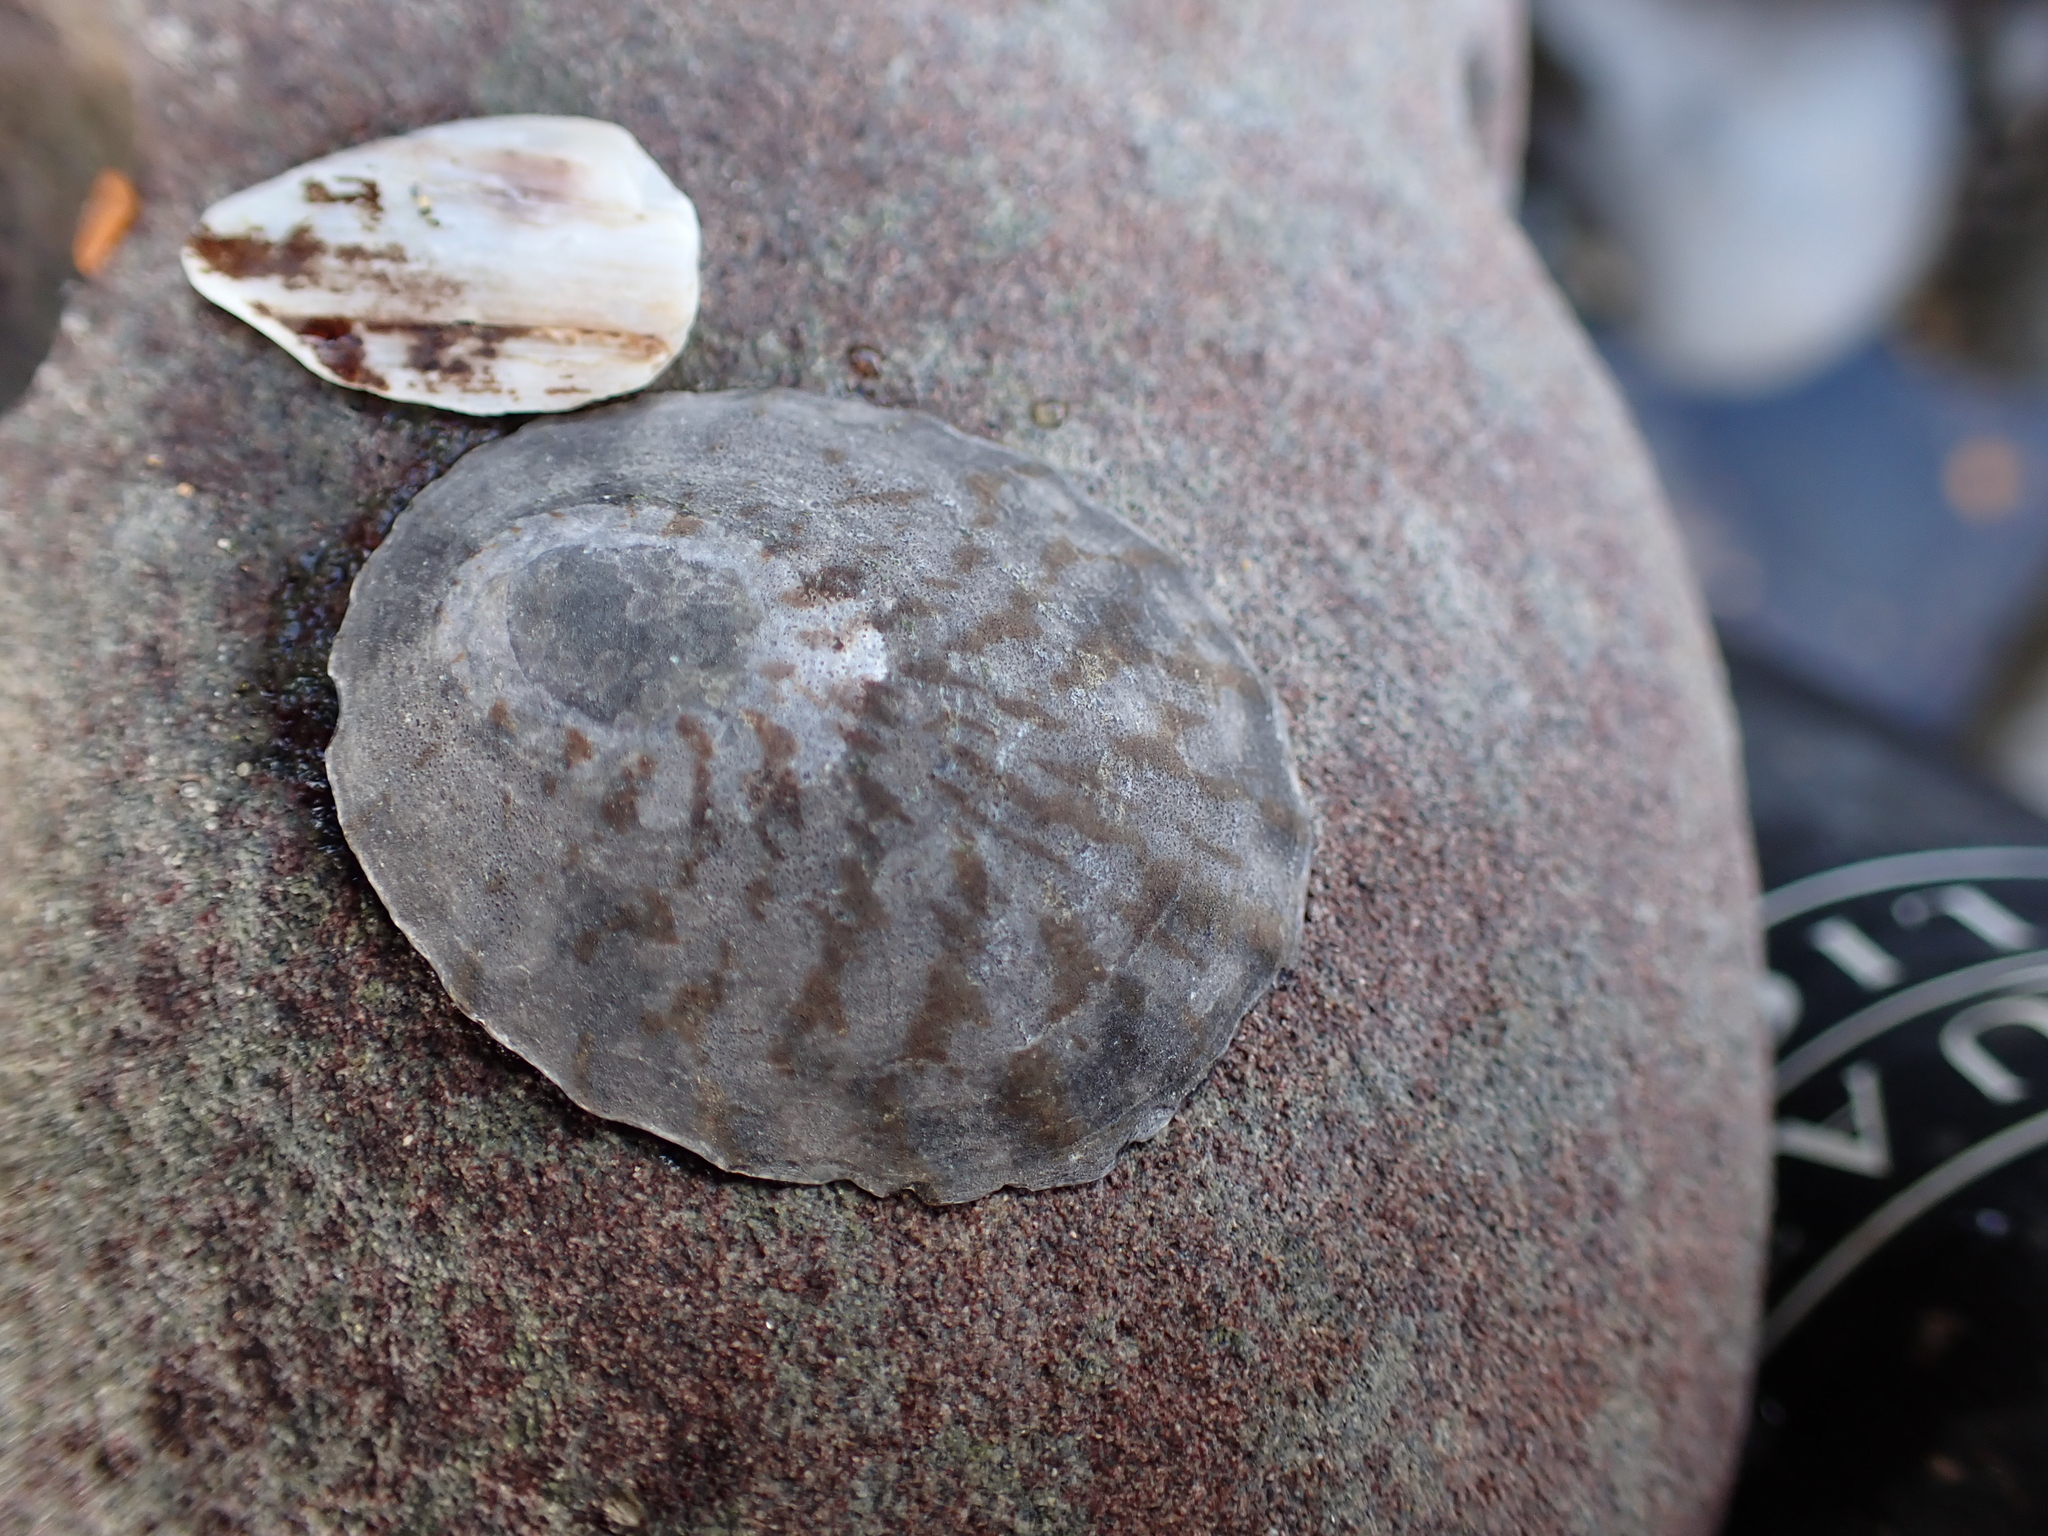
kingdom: Animalia
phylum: Mollusca
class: Gastropoda
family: Nacellidae
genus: Cellana
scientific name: Cellana radians
